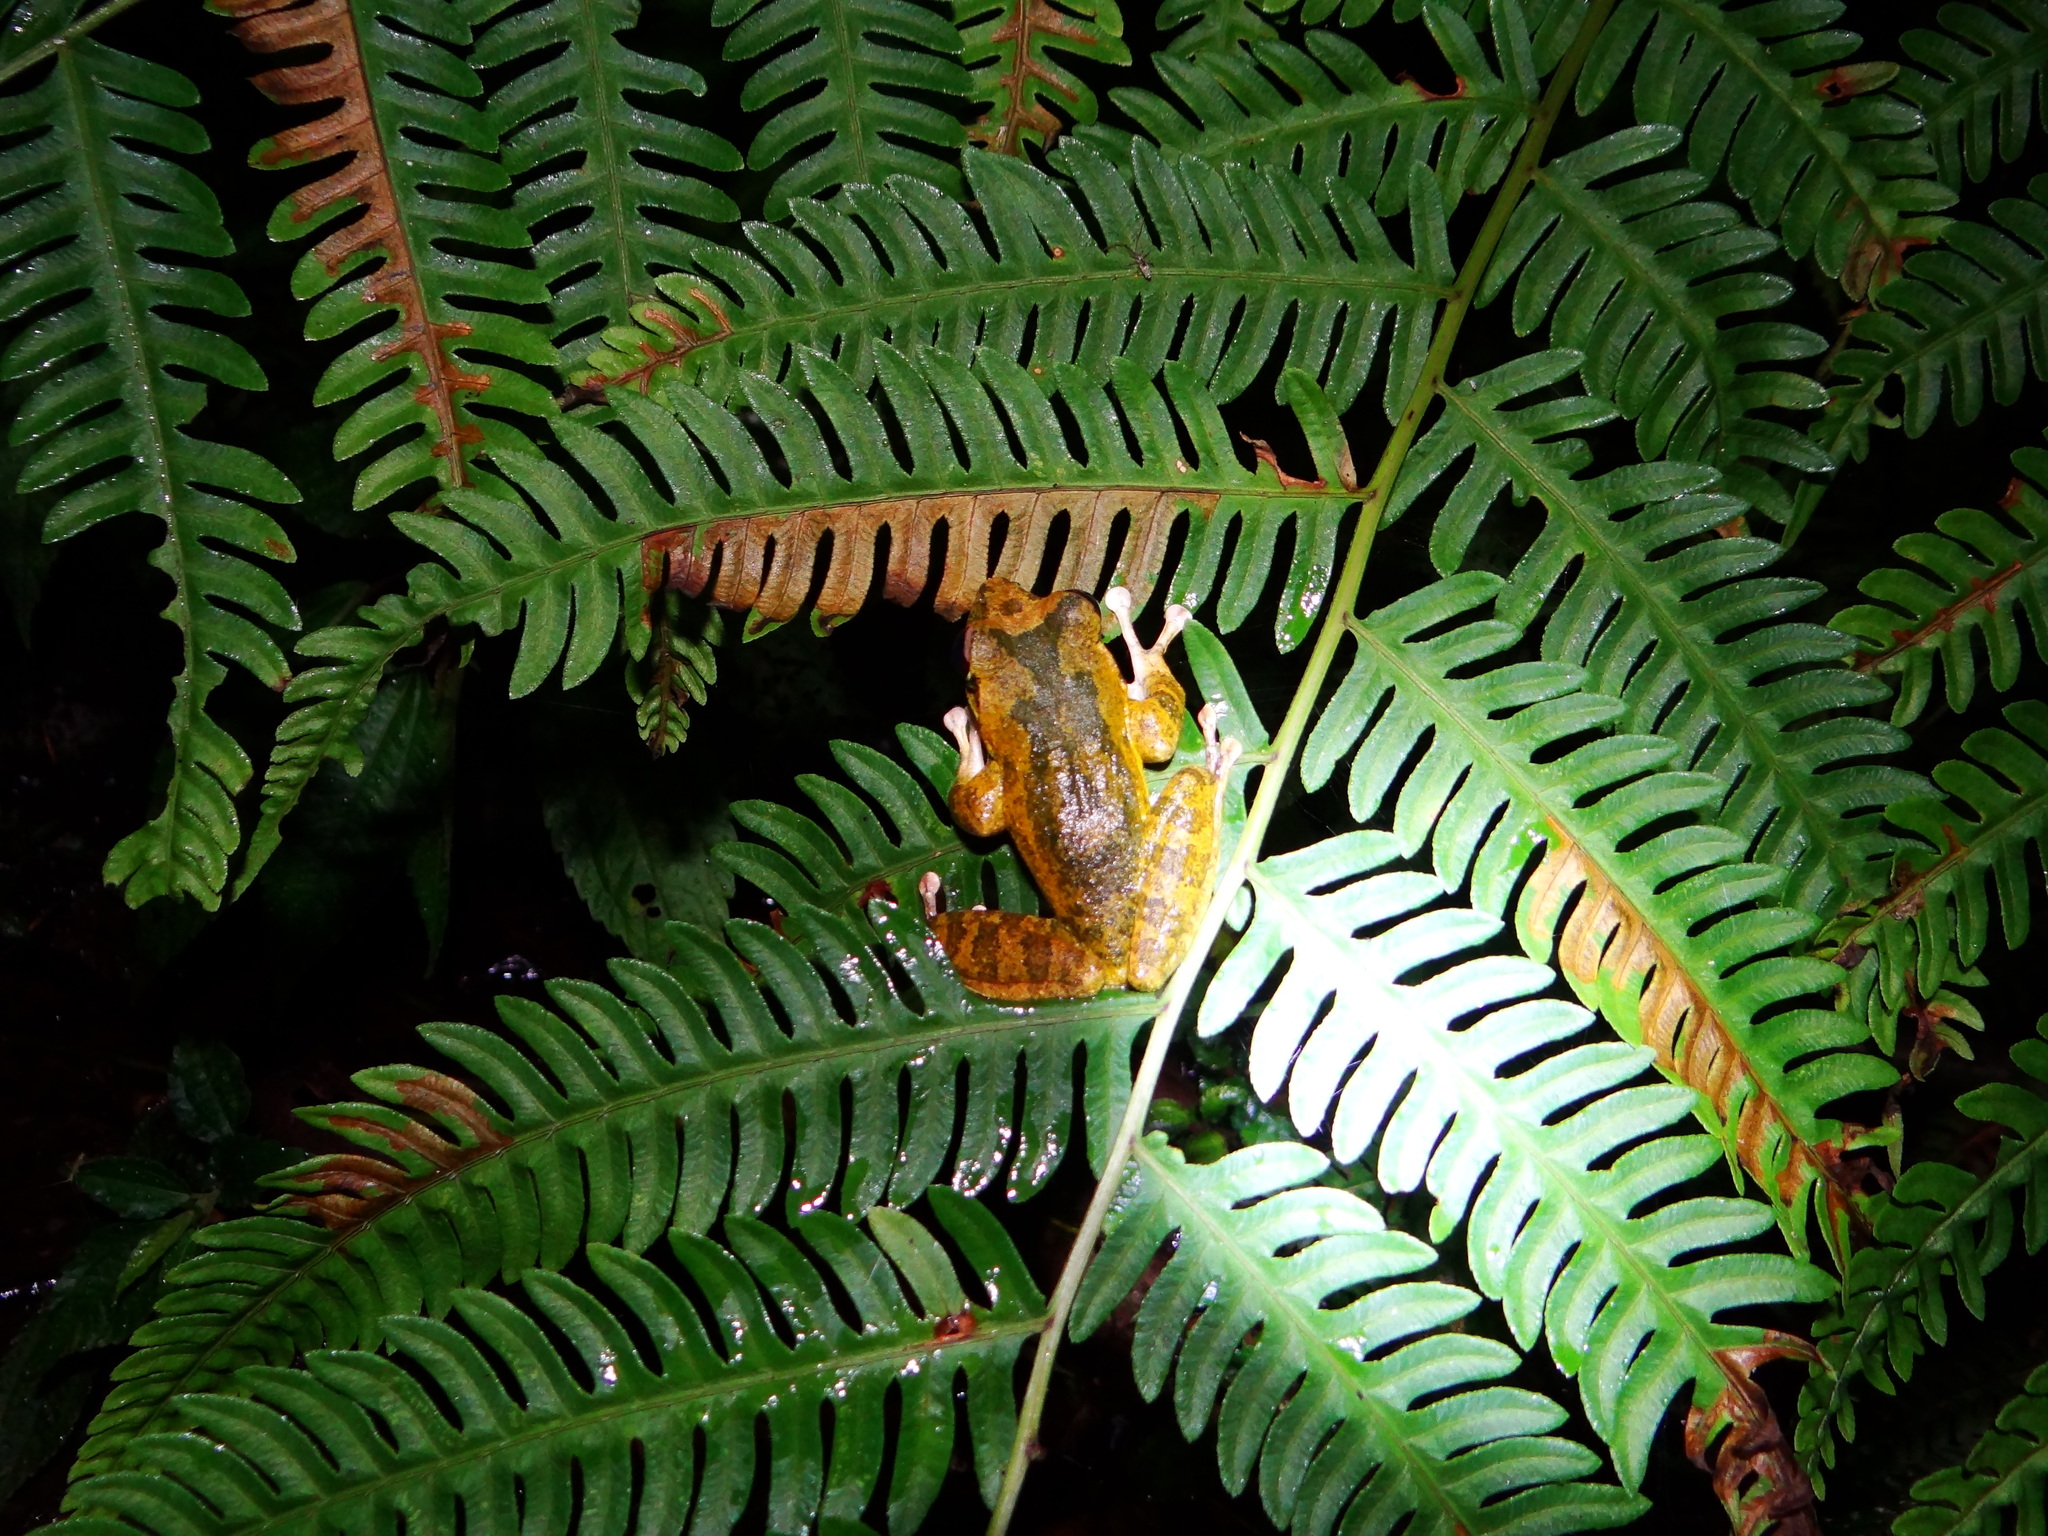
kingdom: Animalia
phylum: Chordata
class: Amphibia
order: Anura
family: Rhacophoridae
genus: Buergeria
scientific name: Buergeria robusta
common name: Brown treefrog
